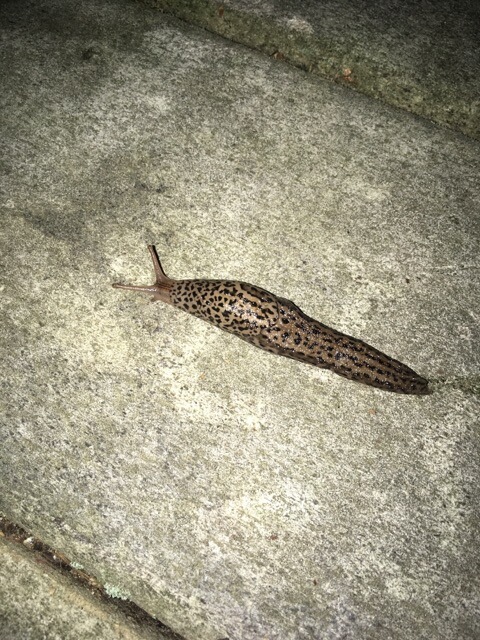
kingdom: Animalia
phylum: Mollusca
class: Gastropoda
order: Stylommatophora
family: Limacidae
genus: Limax
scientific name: Limax maximus
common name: Great grey slug
